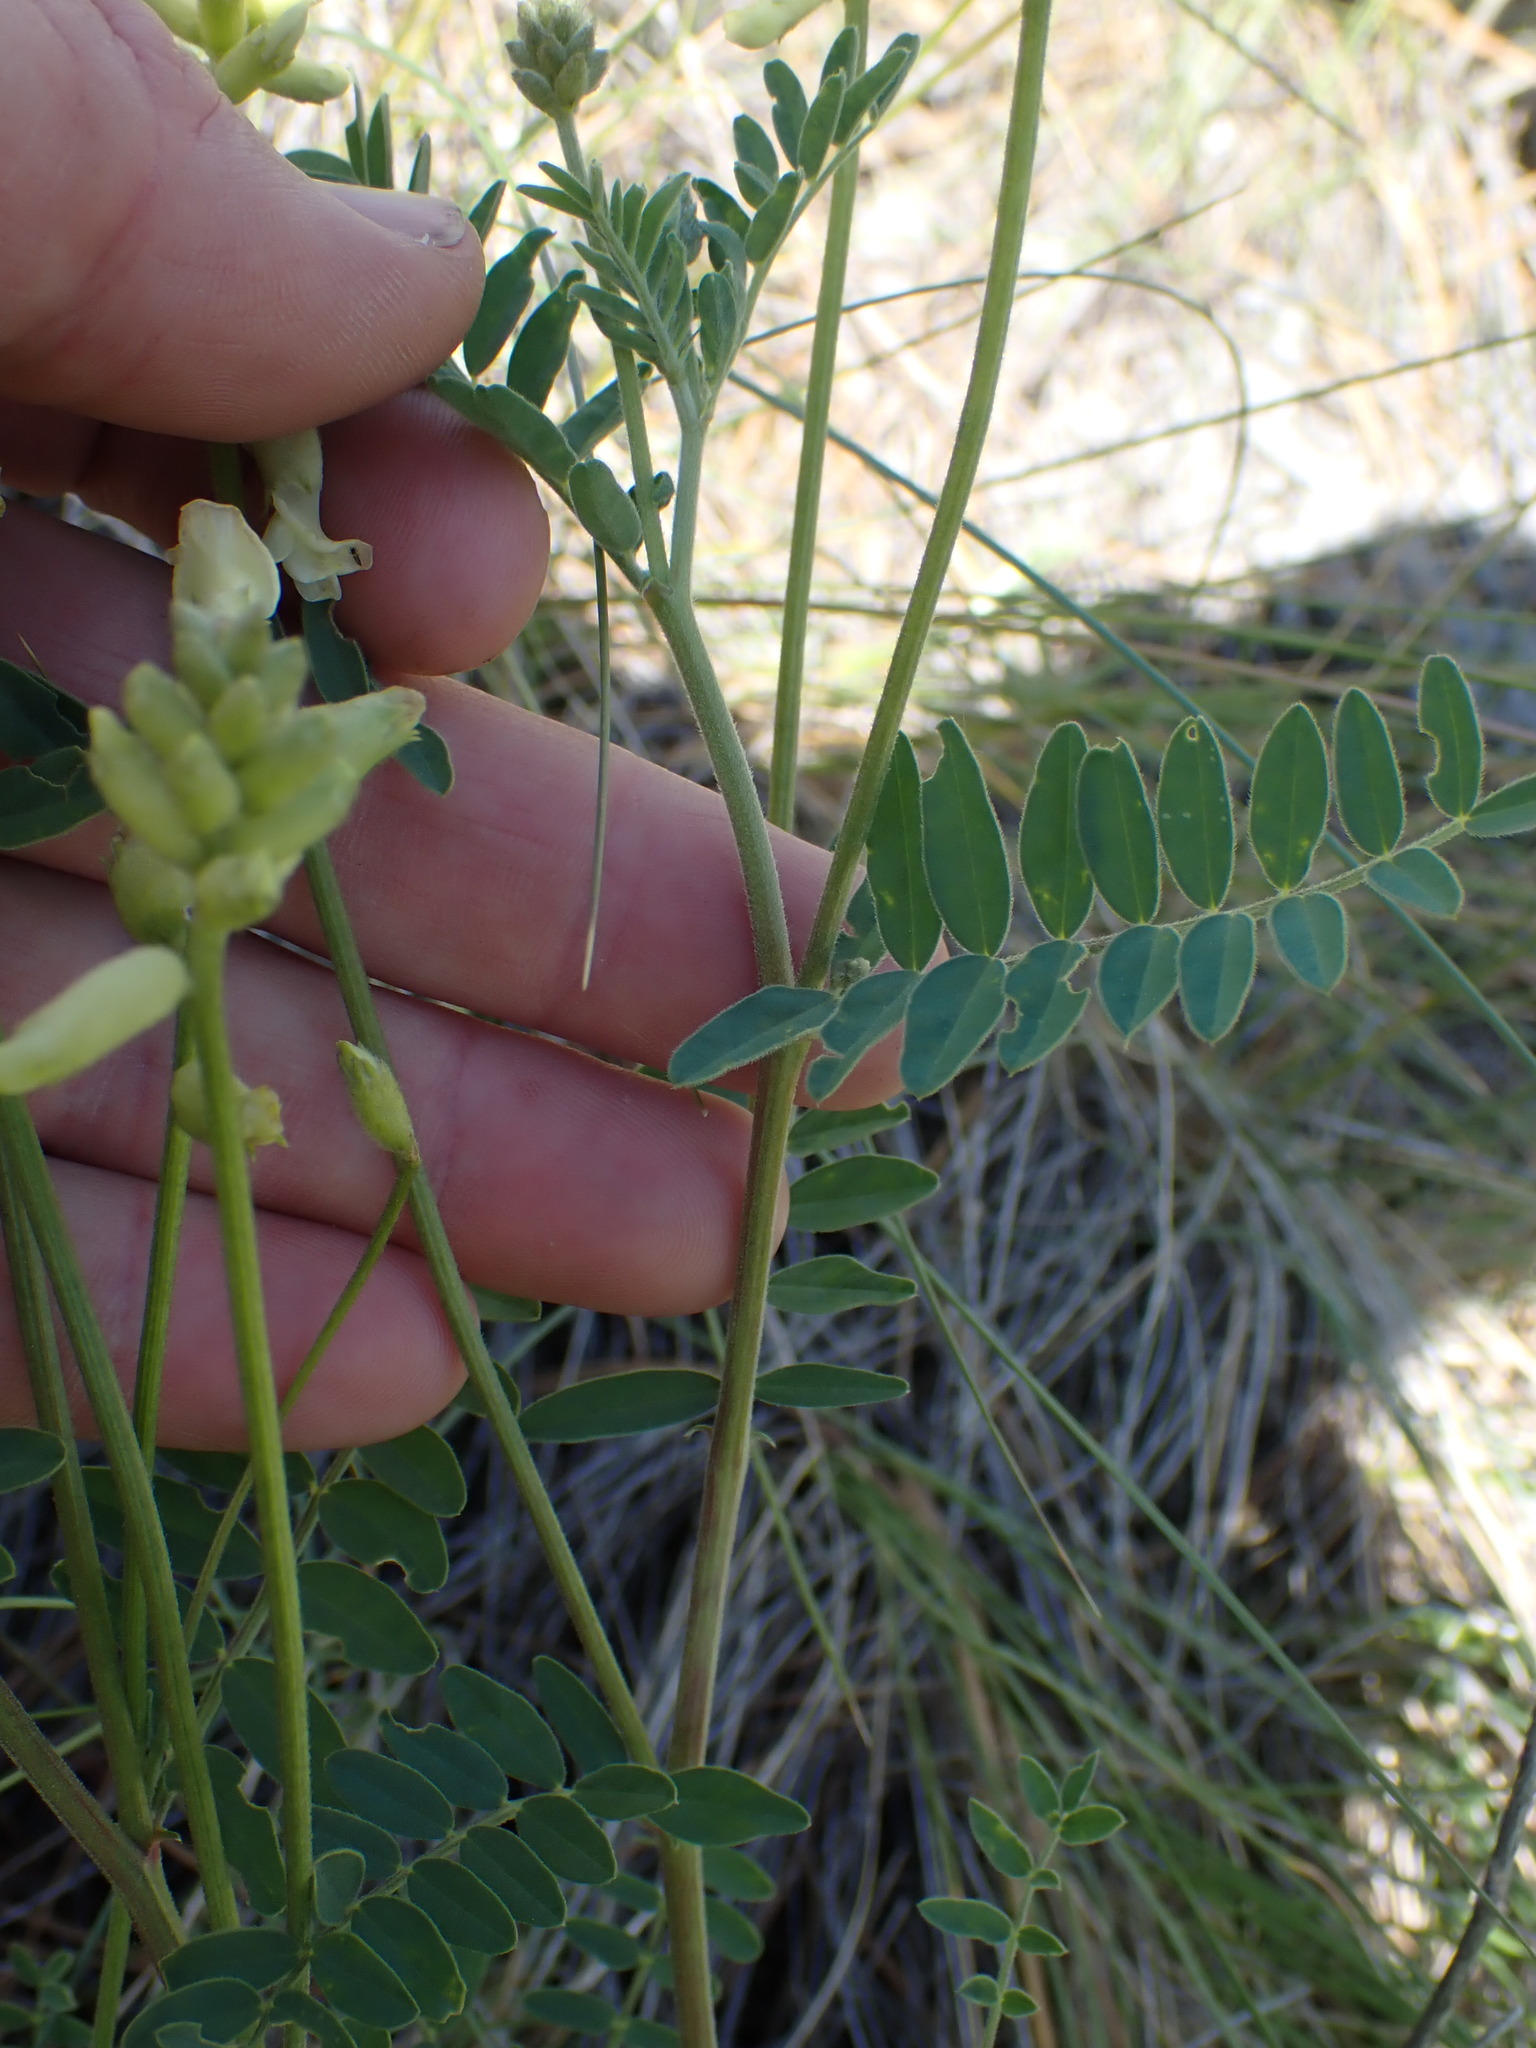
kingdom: Plantae
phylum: Tracheophyta
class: Magnoliopsida
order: Fabales
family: Fabaceae
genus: Astragalus
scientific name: Astragalus collinus
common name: Hill milk-vetch
